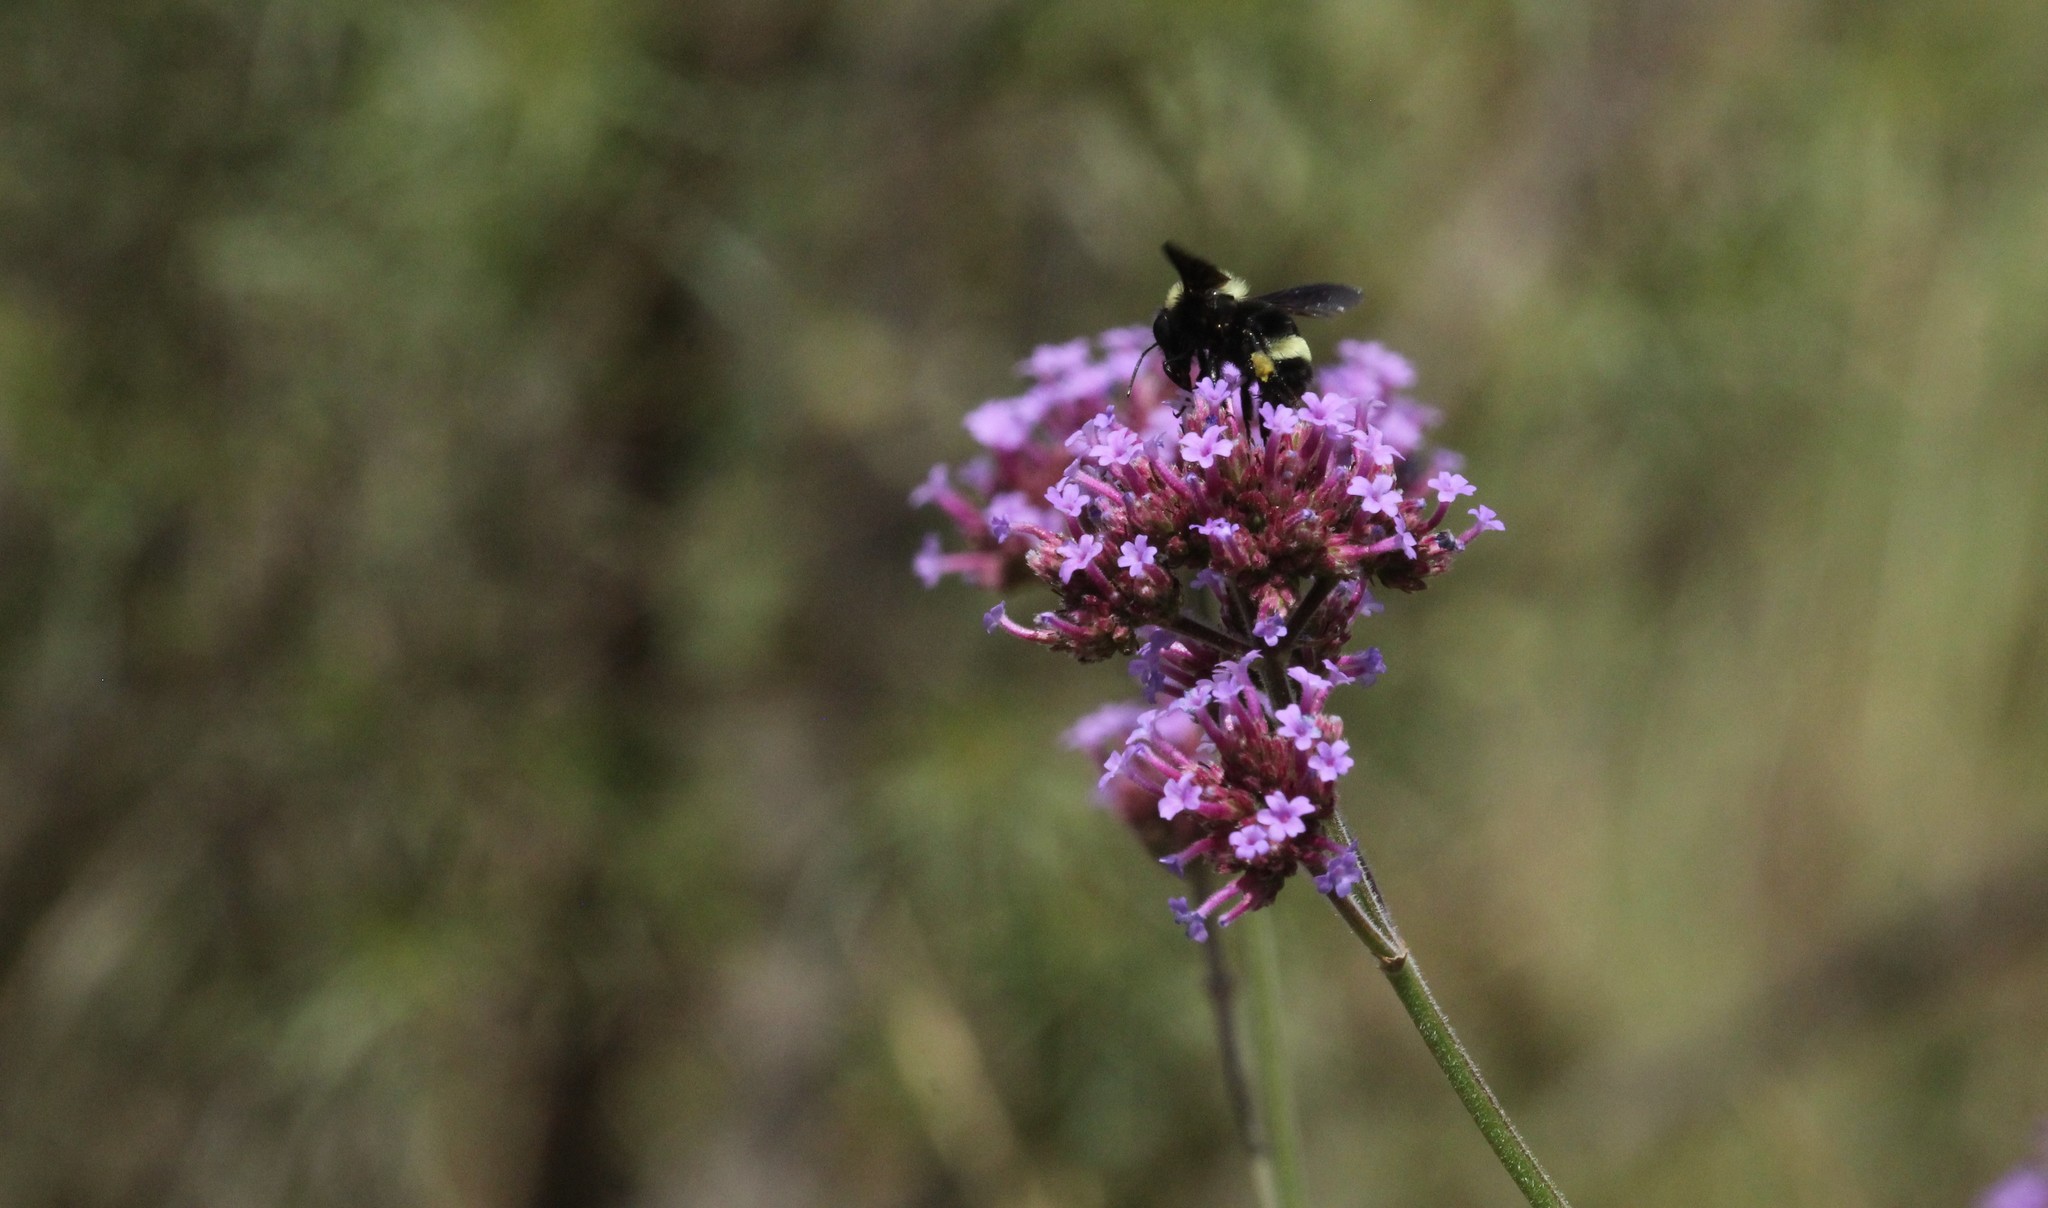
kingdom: Animalia
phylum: Arthropoda
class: Insecta
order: Hymenoptera
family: Apidae
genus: Bombus
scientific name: Bombus pauloensis
